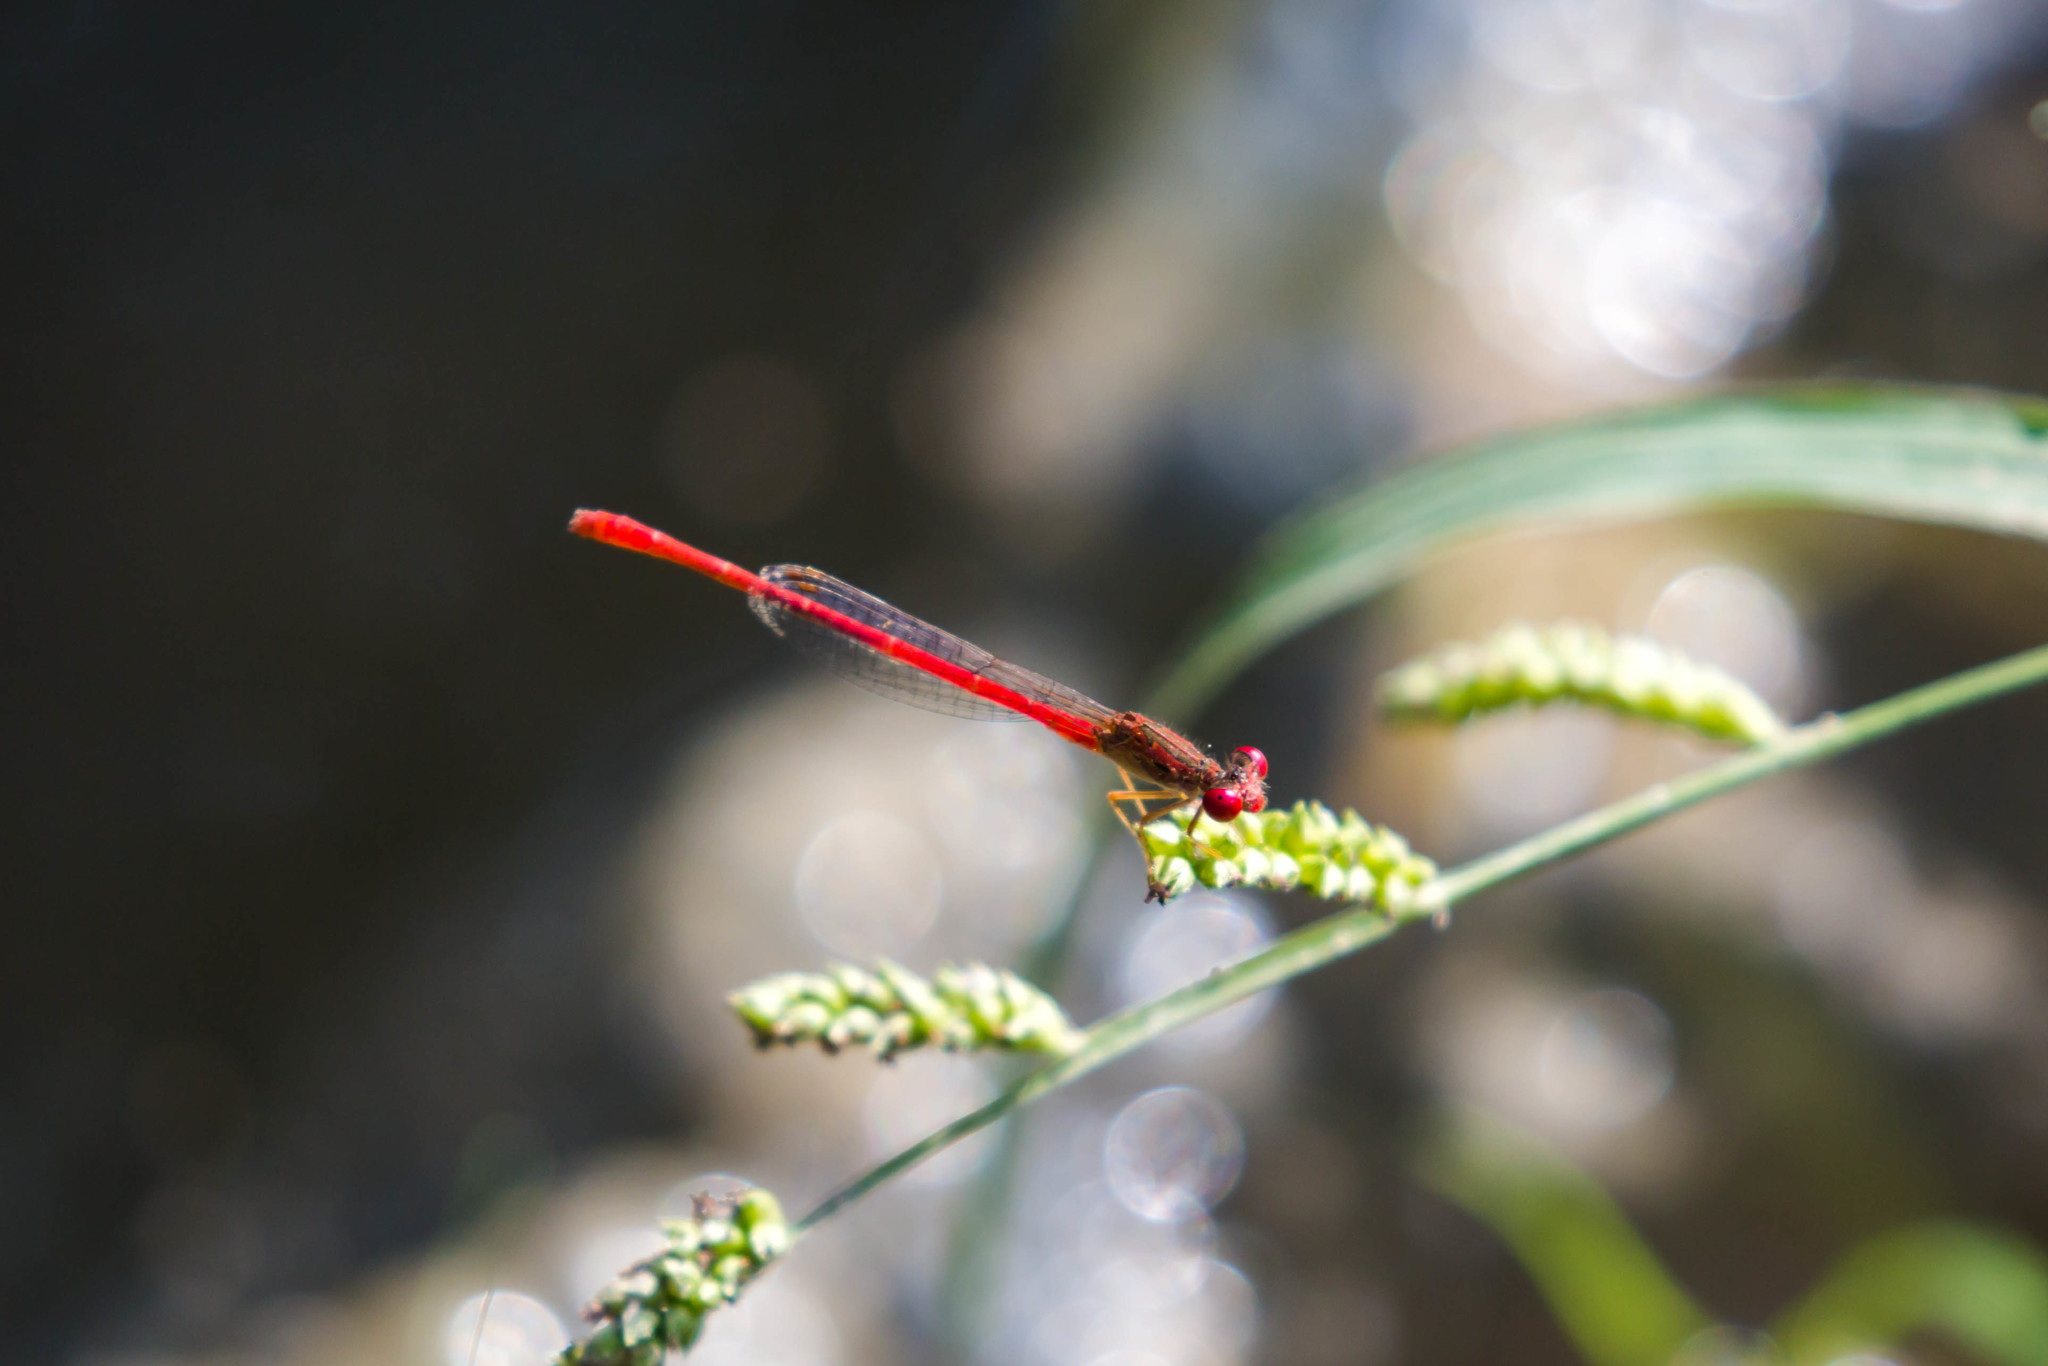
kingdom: Animalia
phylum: Arthropoda
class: Insecta
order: Odonata
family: Coenagrionidae
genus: Telebasis
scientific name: Telebasis salva
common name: Desert firetail
